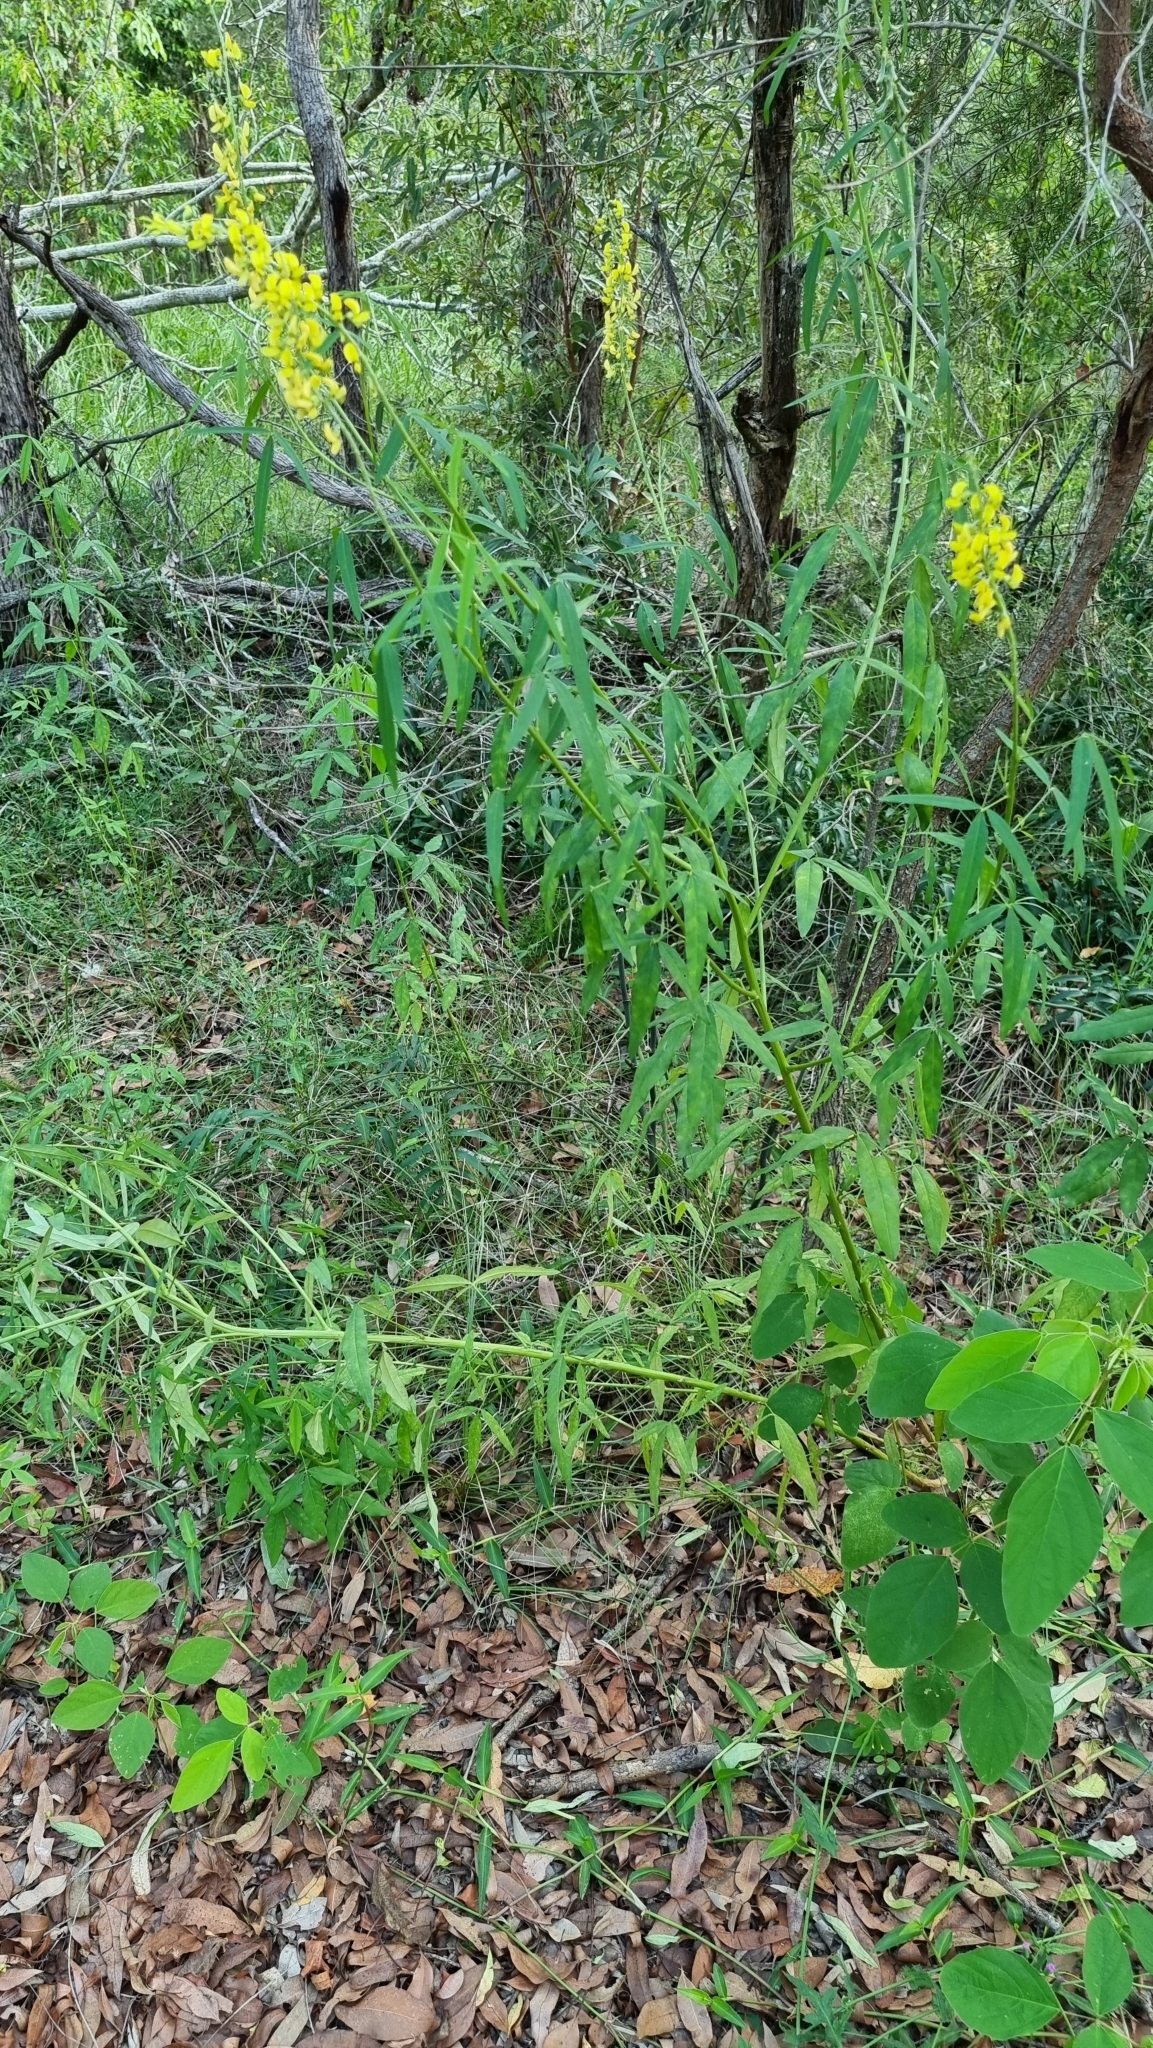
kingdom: Plantae
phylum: Tracheophyta
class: Magnoliopsida
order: Fabales
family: Fabaceae
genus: Crotalaria
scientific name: Crotalaria lanceolata
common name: Lanceleaf rattlebox
